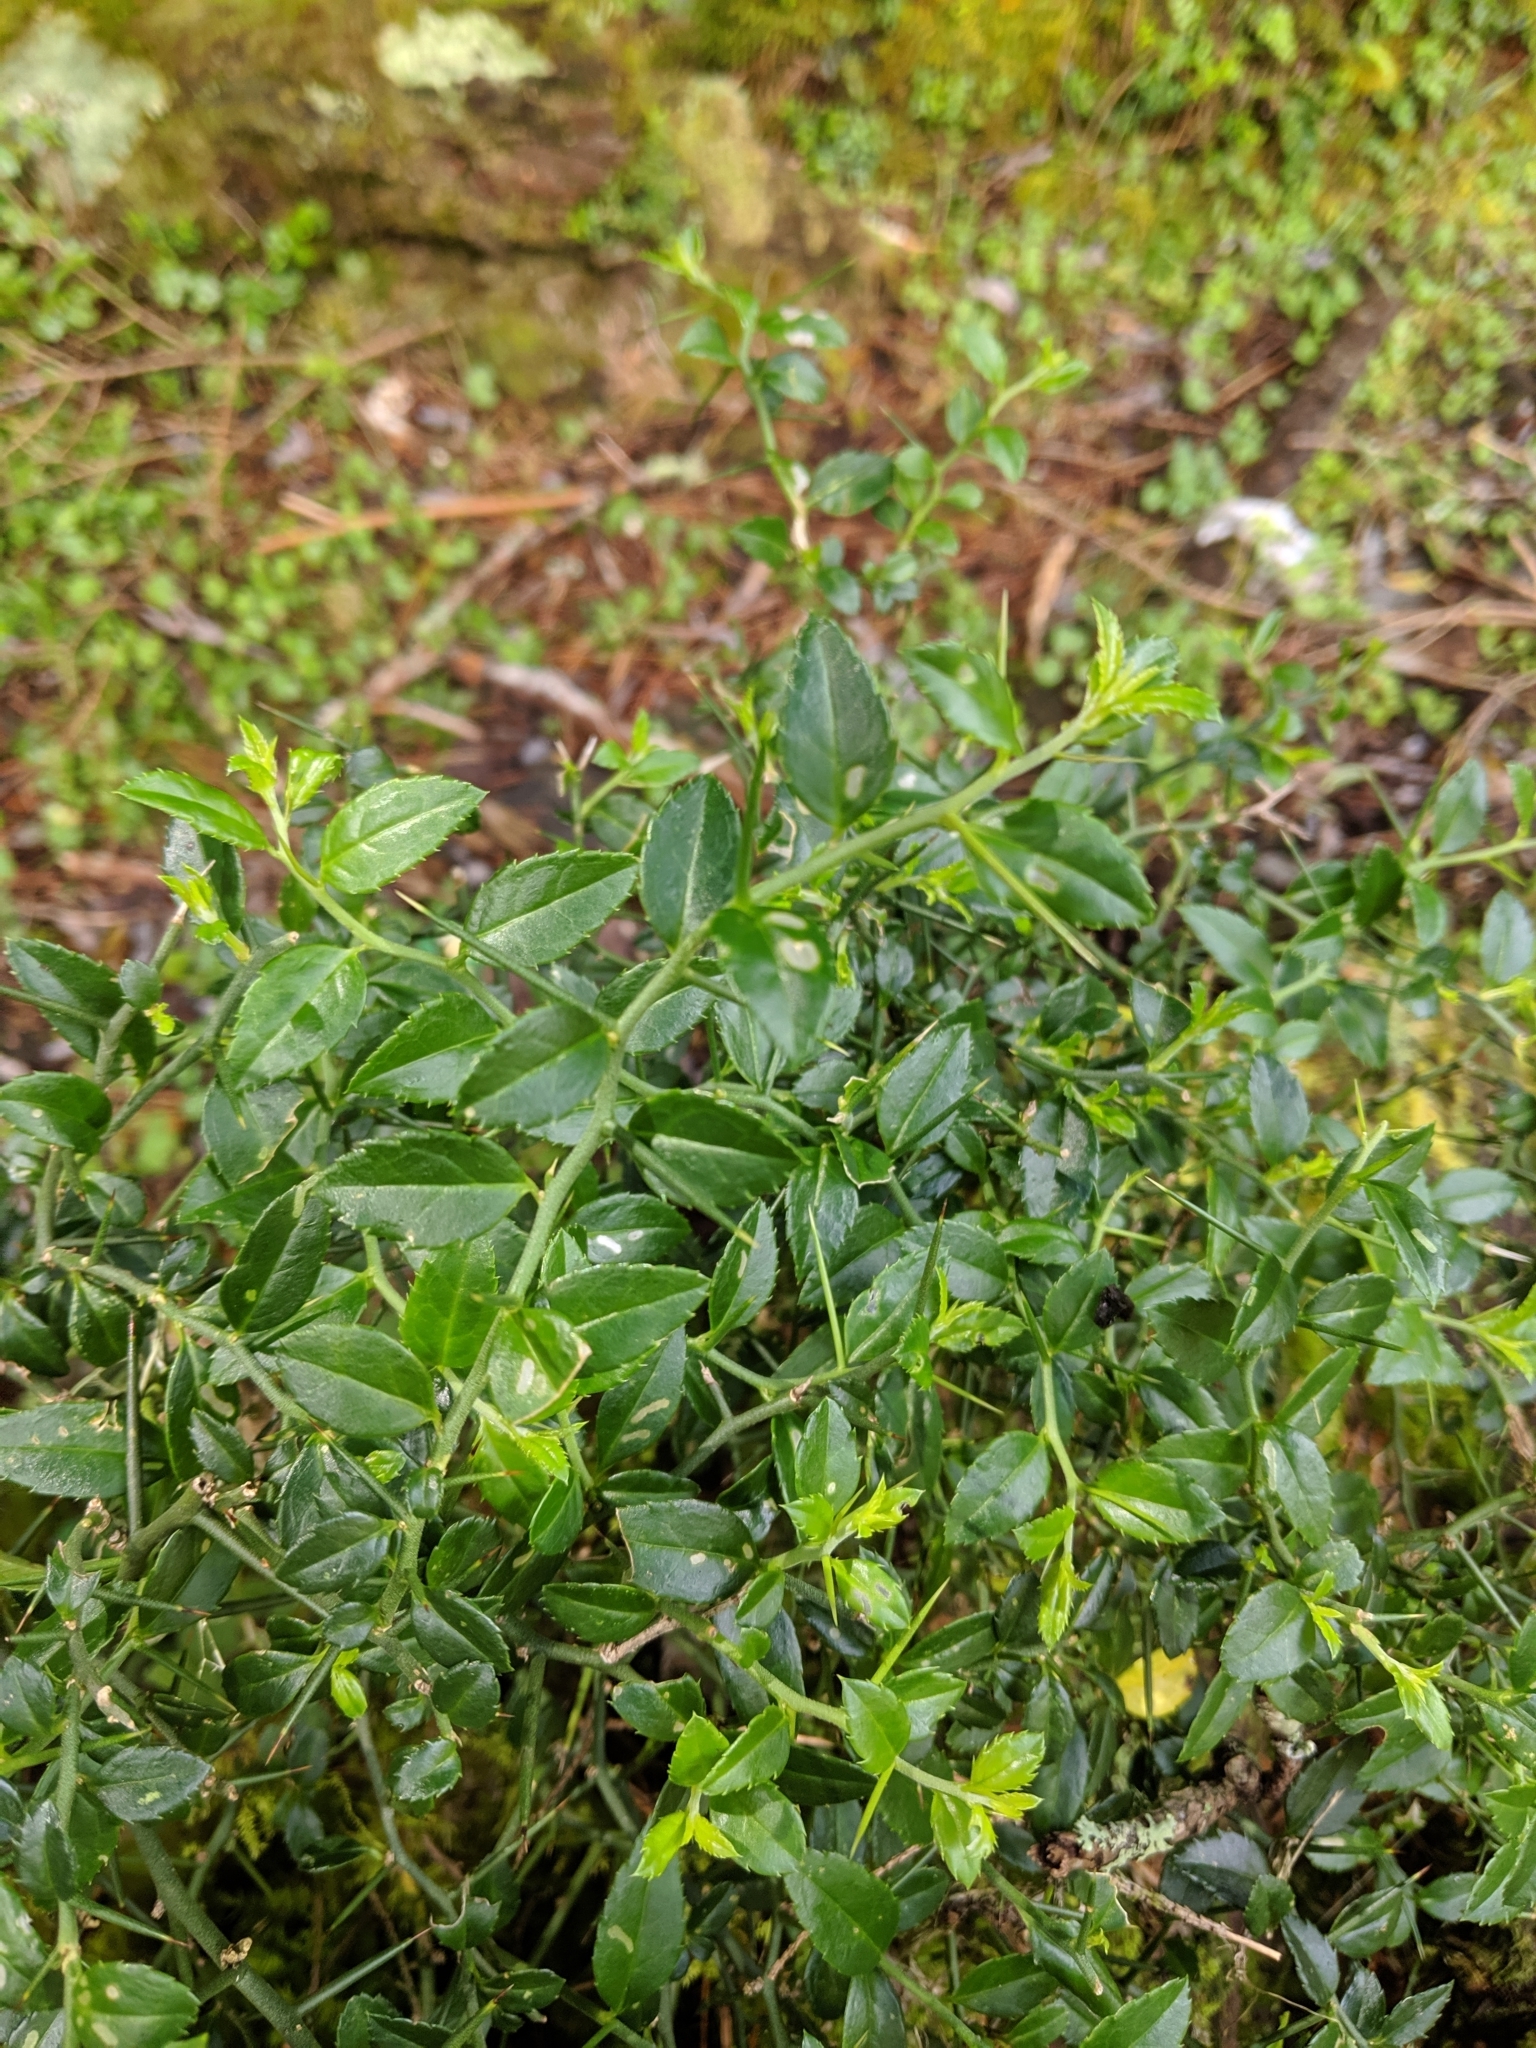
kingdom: Plantae
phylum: Tracheophyta
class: Magnoliopsida
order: Rosales
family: Rosaceae
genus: Prinsepia
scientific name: Prinsepia scandens
